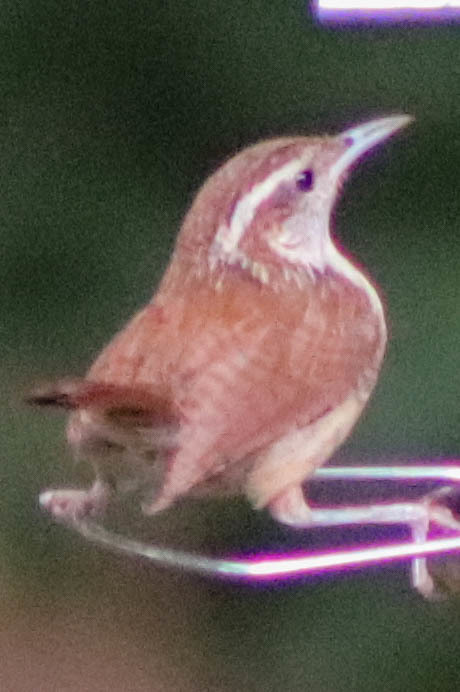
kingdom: Animalia
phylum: Chordata
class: Aves
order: Passeriformes
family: Troglodytidae
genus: Thryothorus
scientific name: Thryothorus ludovicianus
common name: Carolina wren
